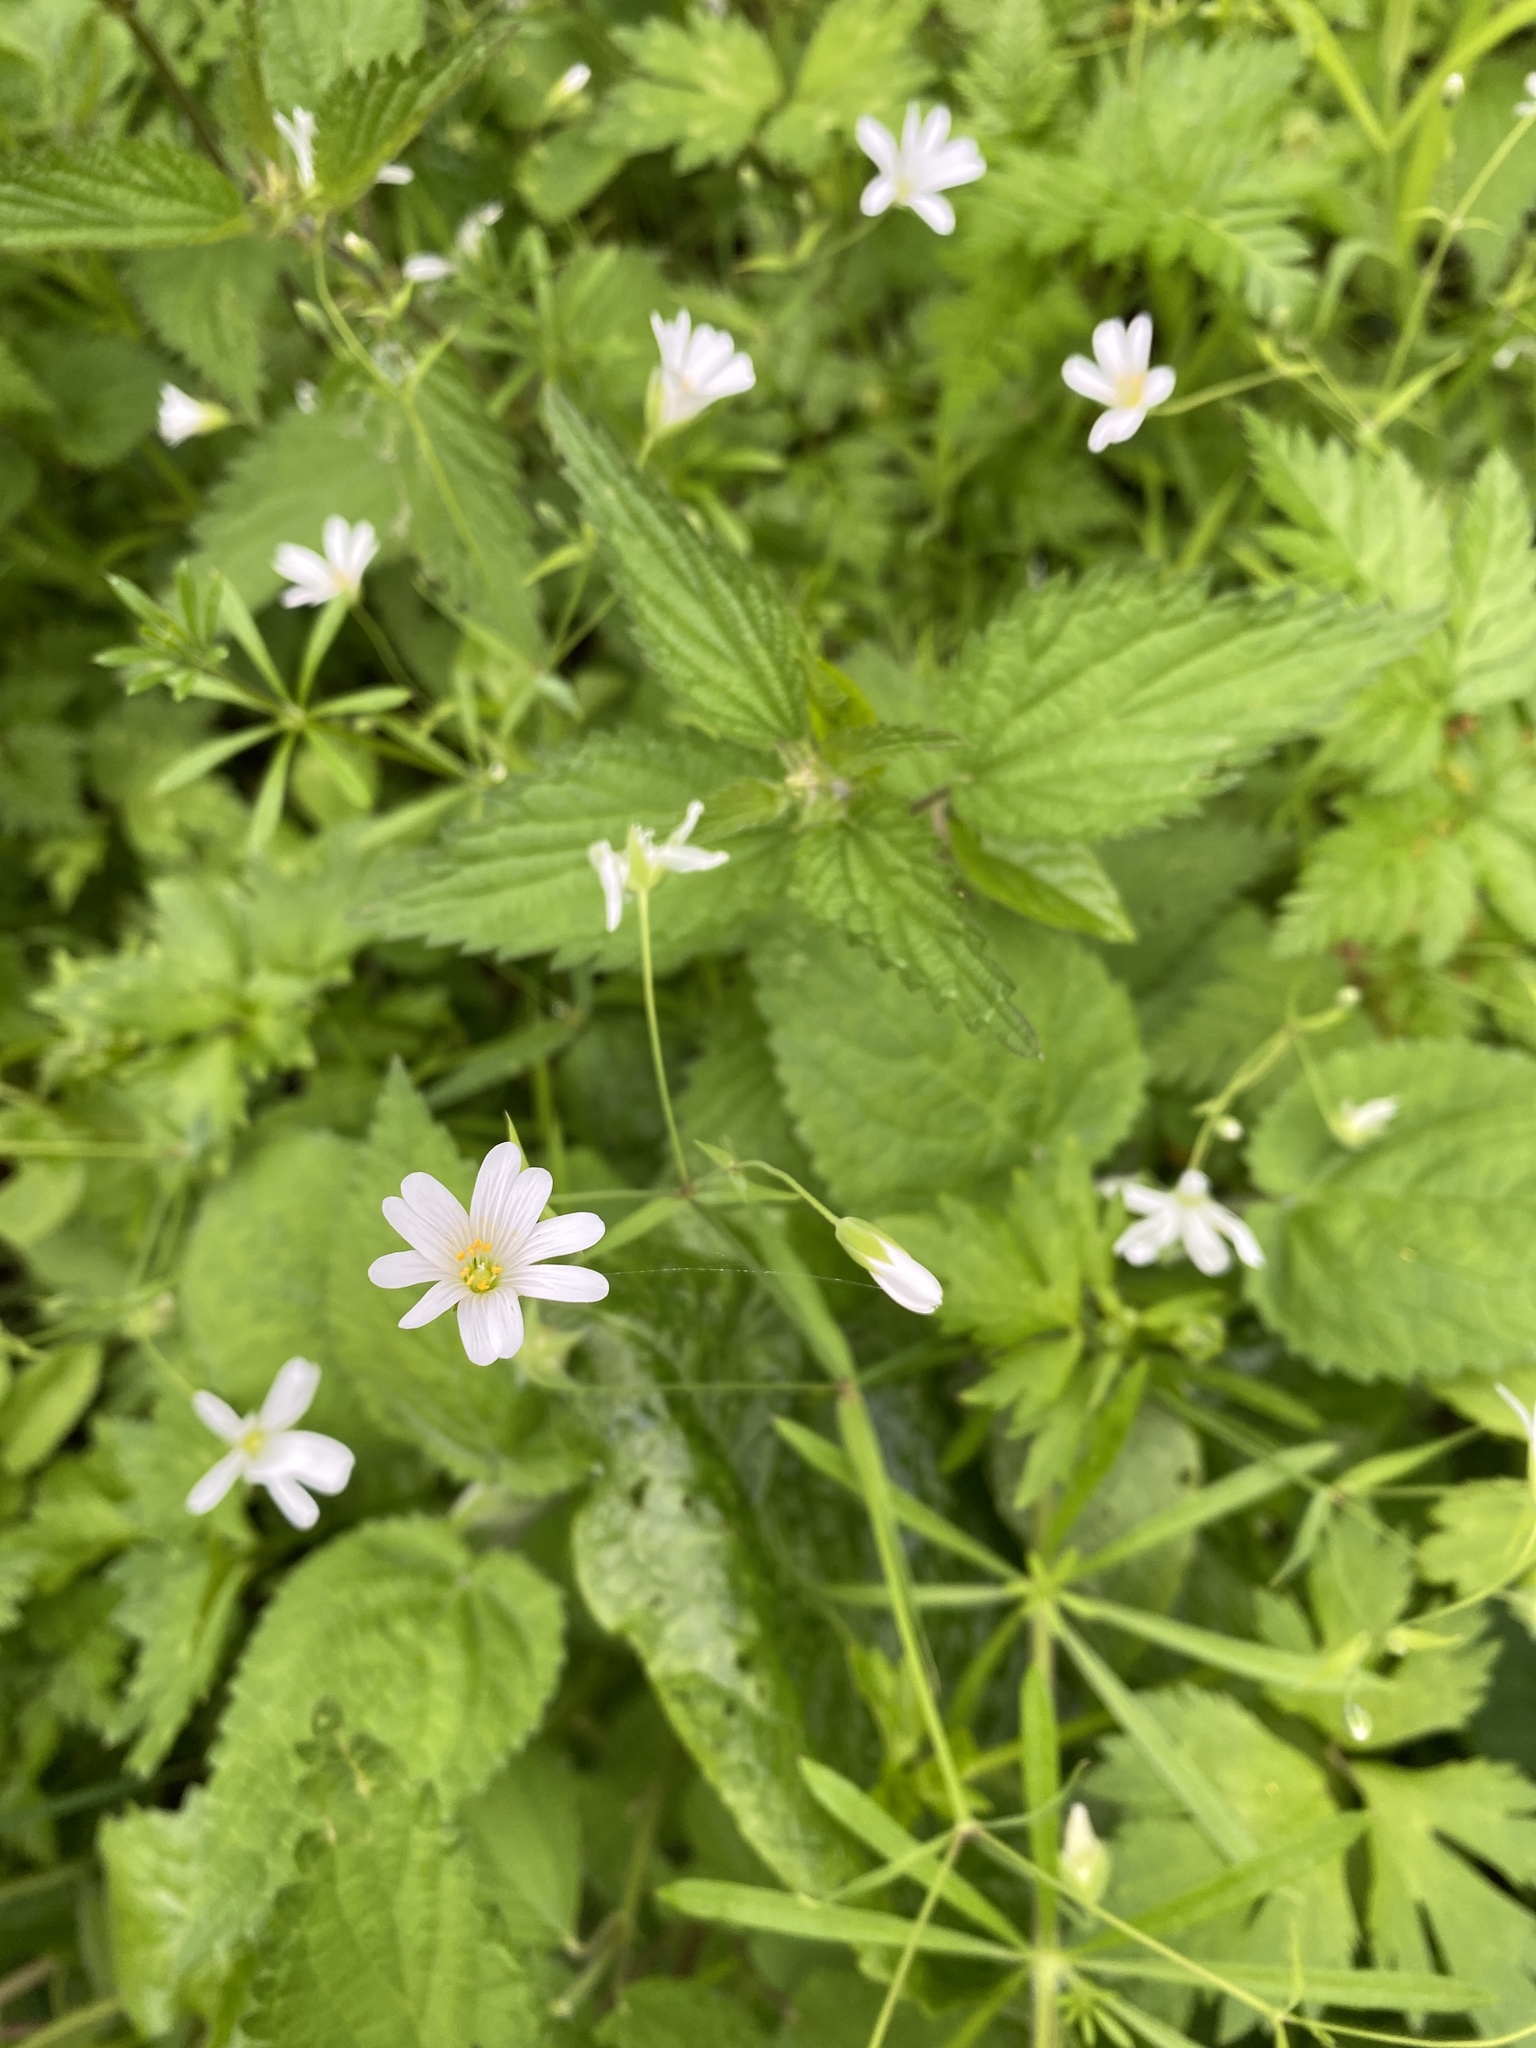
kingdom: Plantae
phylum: Tracheophyta
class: Magnoliopsida
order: Caryophyllales
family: Caryophyllaceae
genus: Rabelera
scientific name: Rabelera holostea
